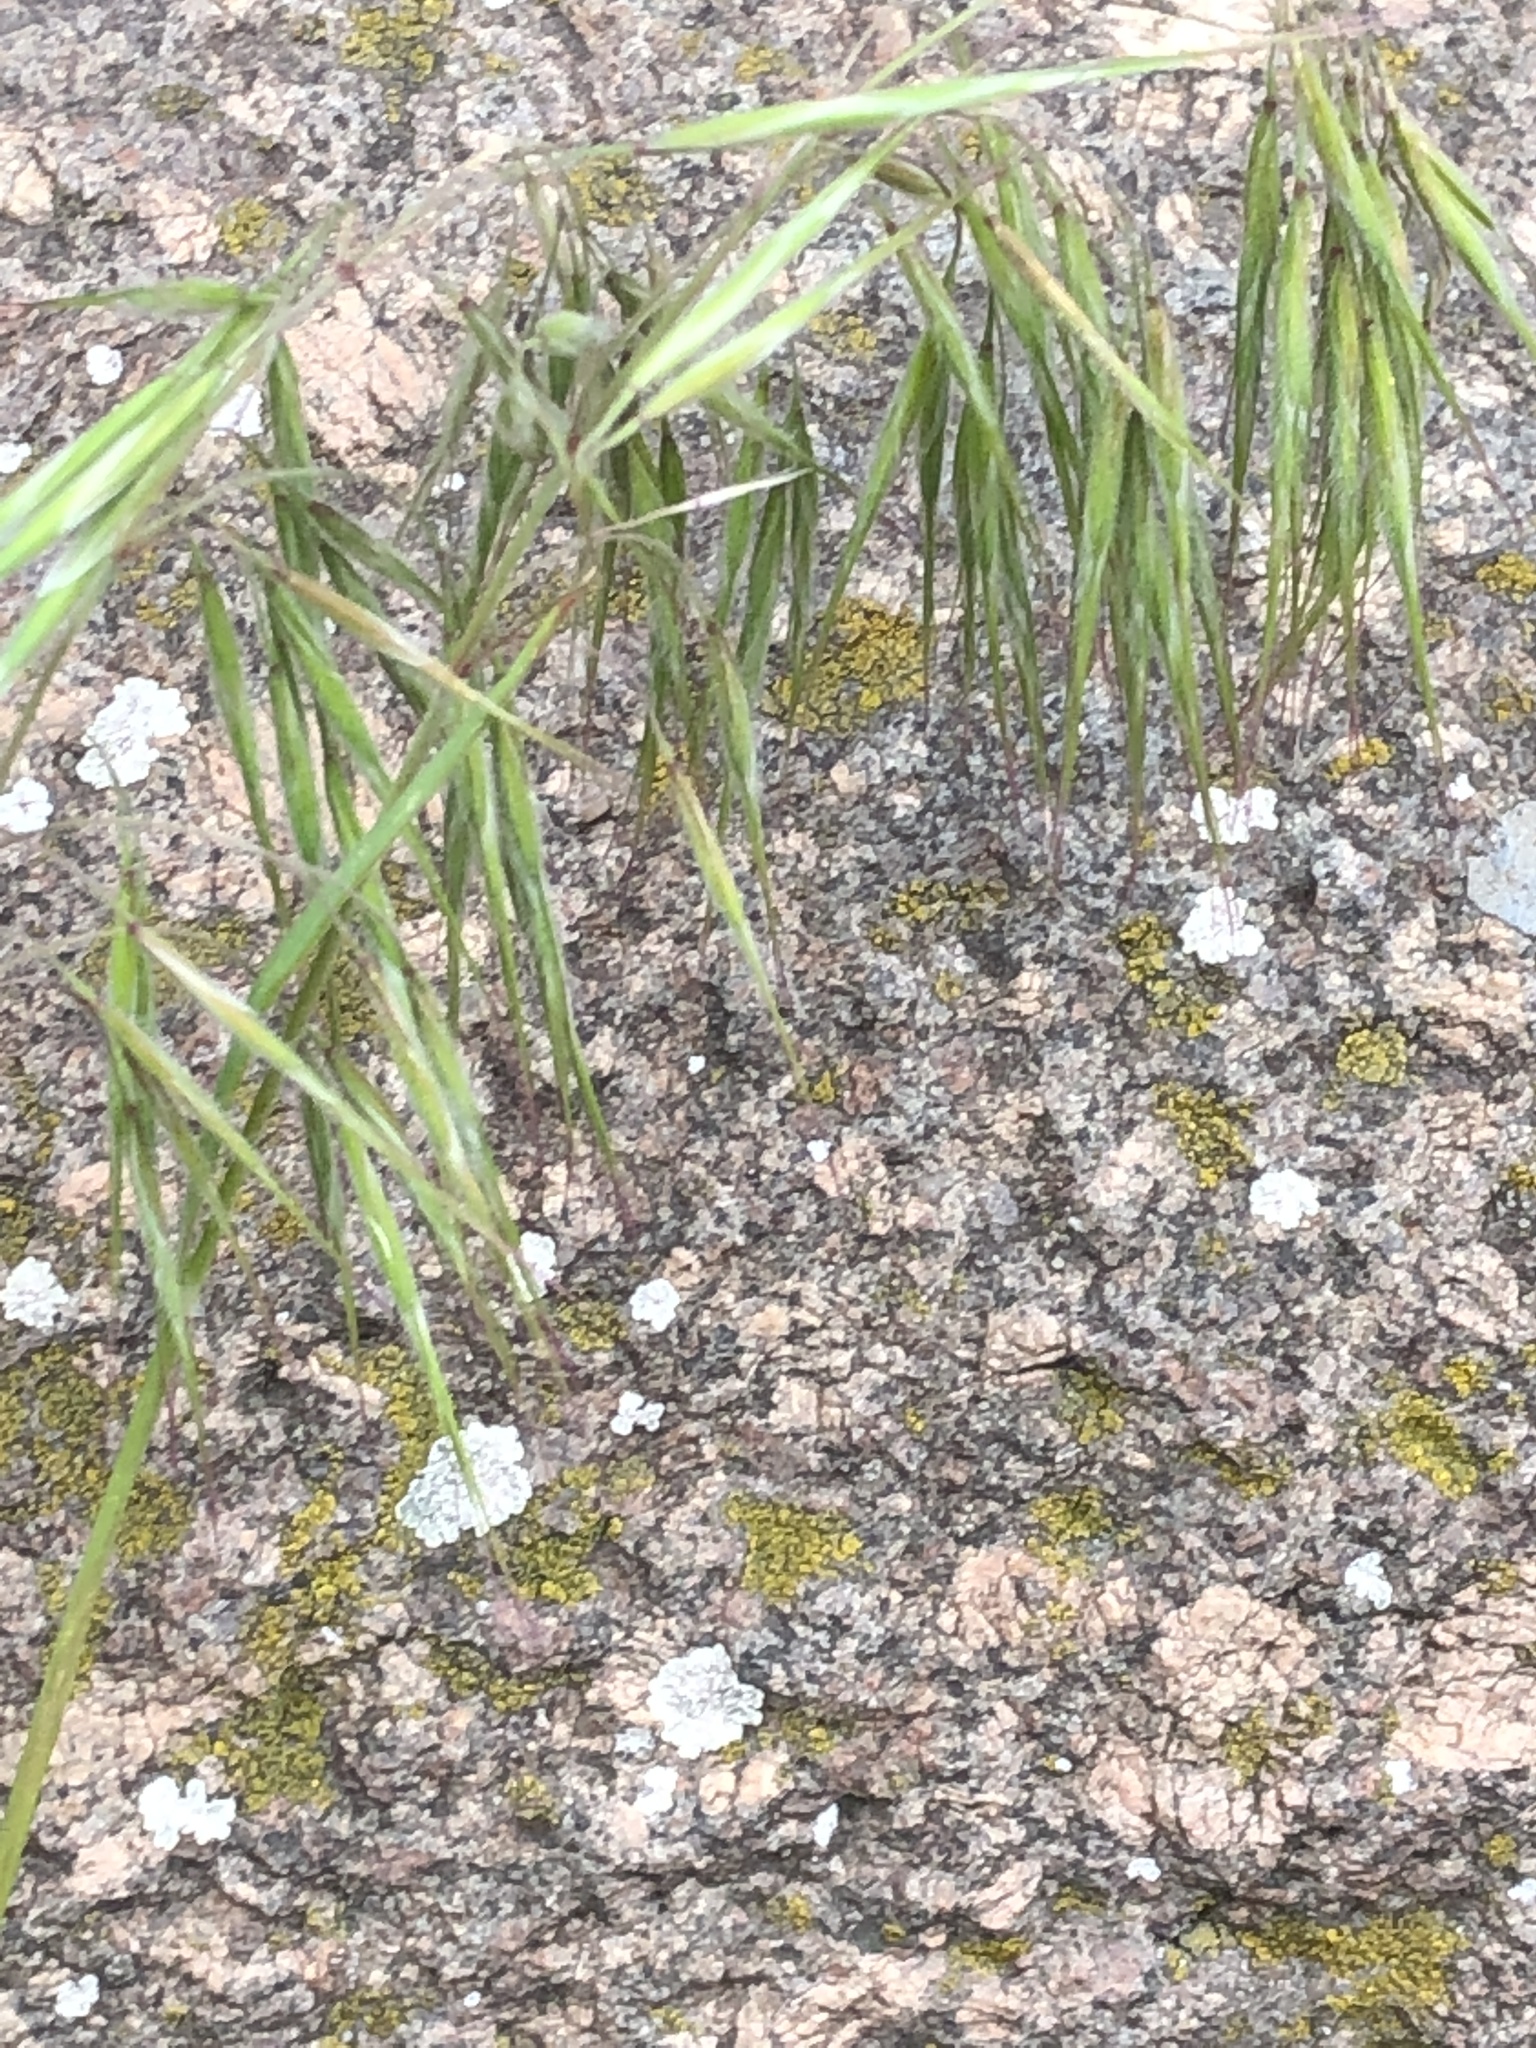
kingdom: Plantae
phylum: Tracheophyta
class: Liliopsida
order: Poales
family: Poaceae
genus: Bromus
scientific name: Bromus tectorum
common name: Cheatgrass
